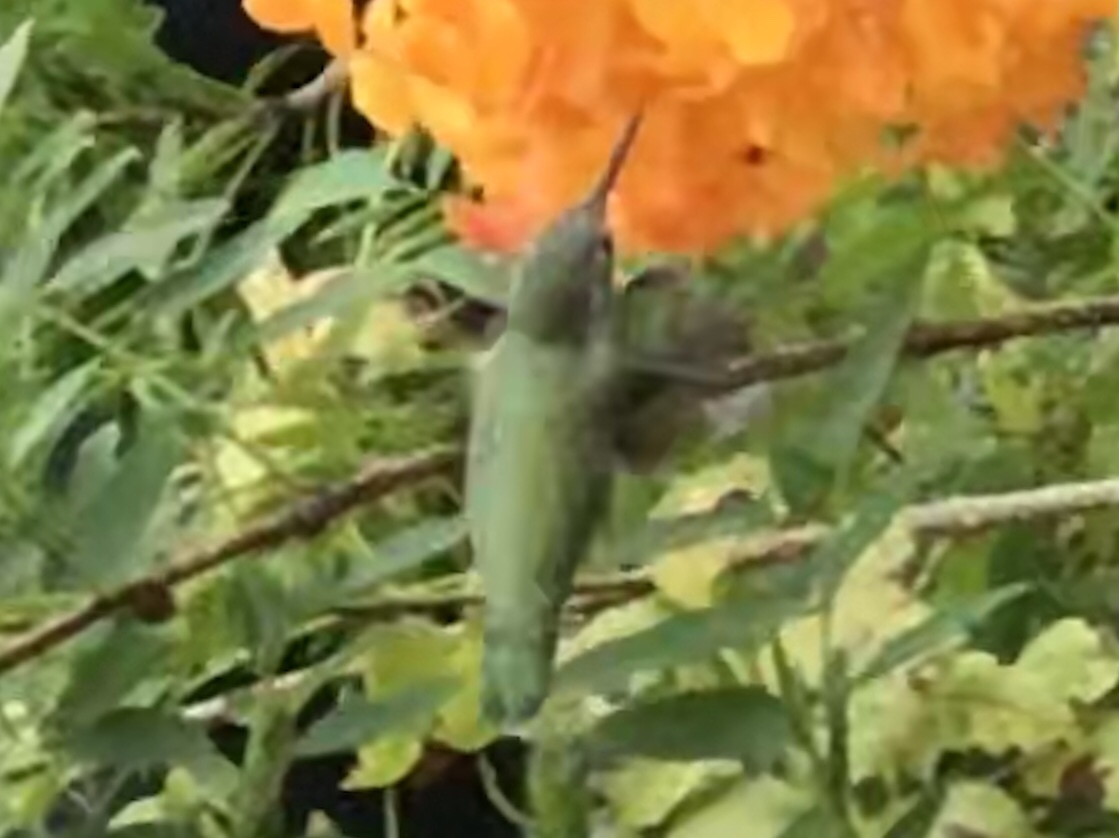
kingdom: Animalia
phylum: Chordata
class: Aves
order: Apodiformes
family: Trochilidae
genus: Calypte
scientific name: Calypte anna
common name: Anna's hummingbird
